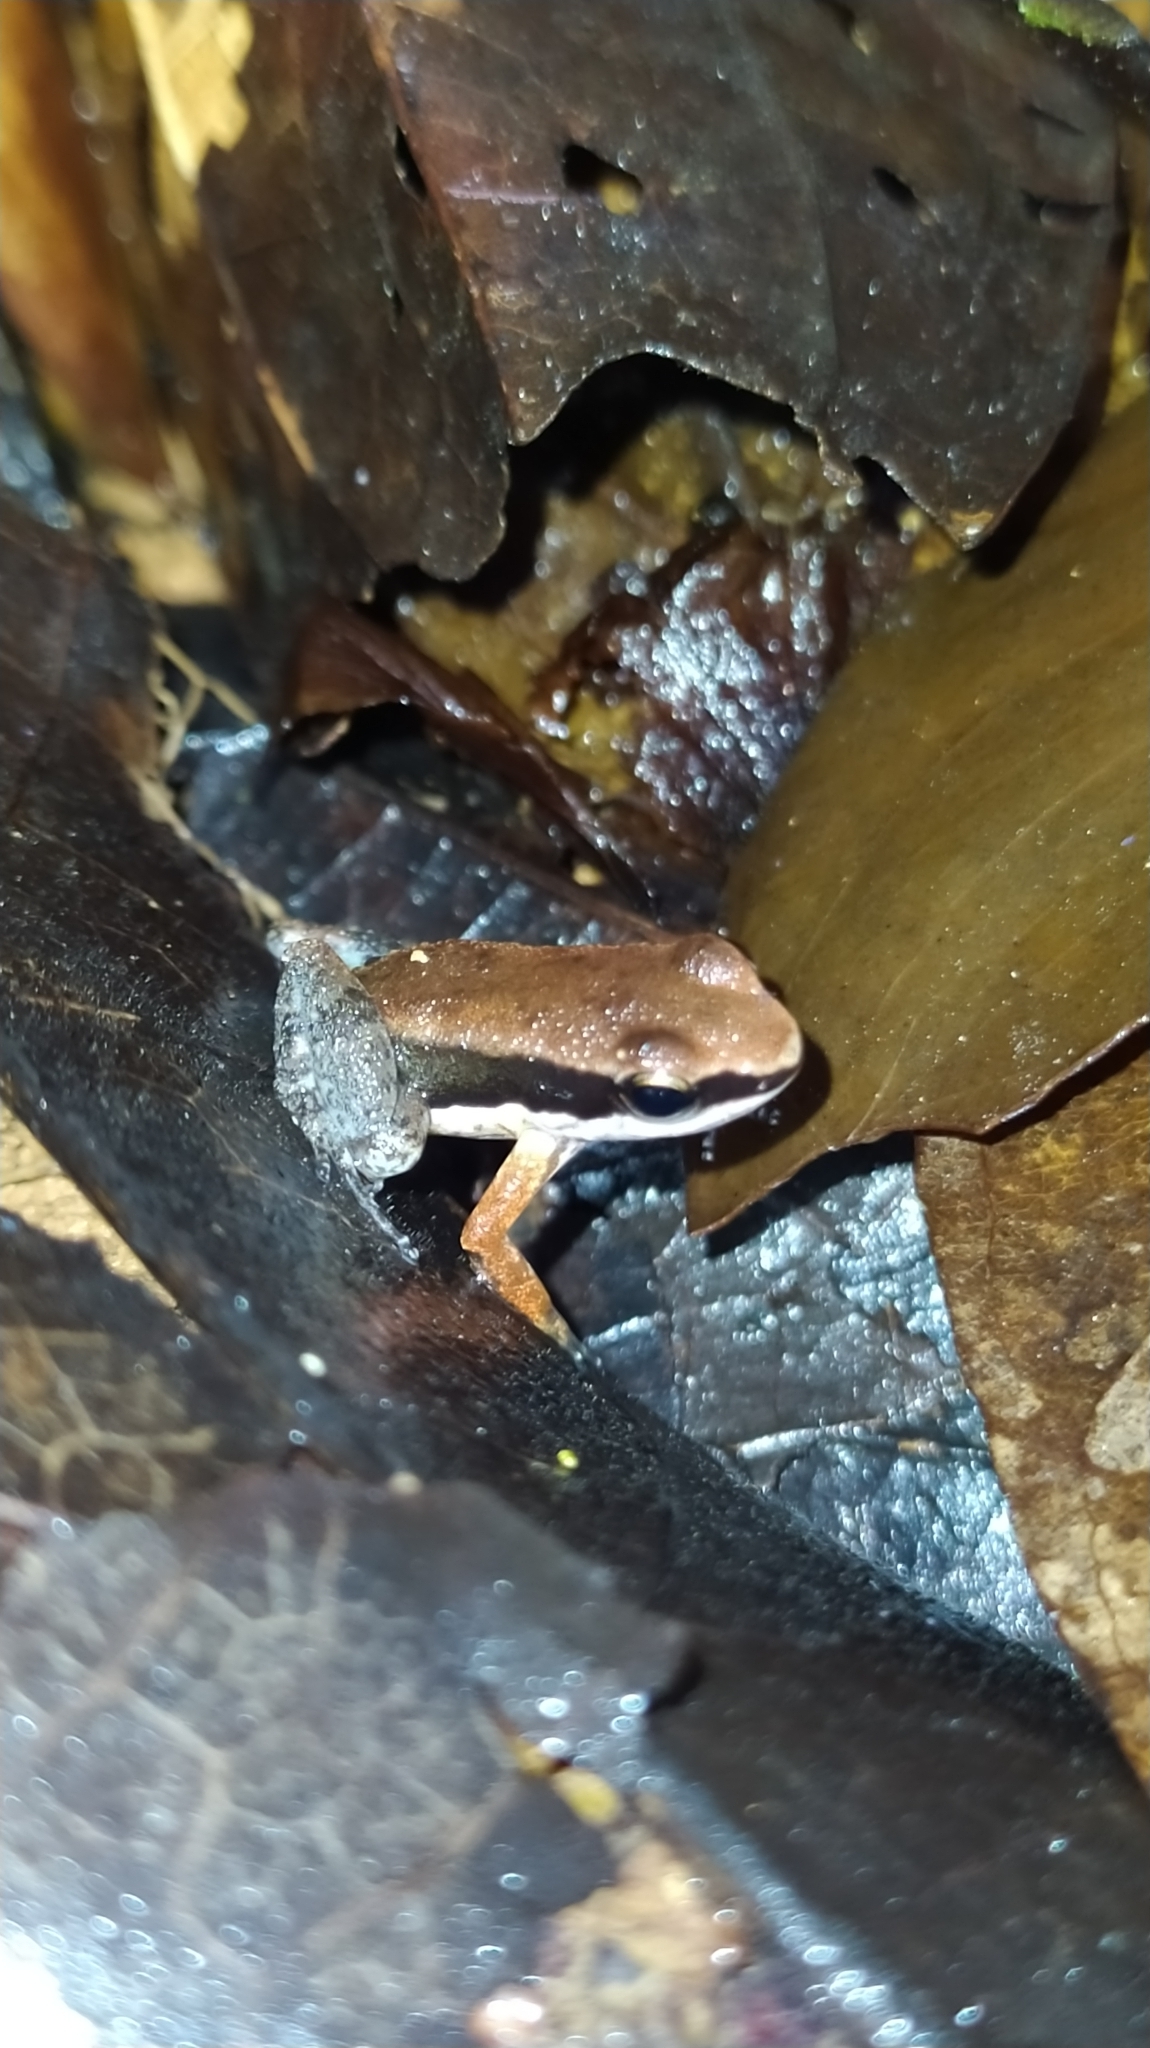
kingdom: Animalia
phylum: Chordata
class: Amphibia
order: Anura
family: Aromobatidae
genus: Allobates
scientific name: Allobates granti
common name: Black-flanked poison frog
